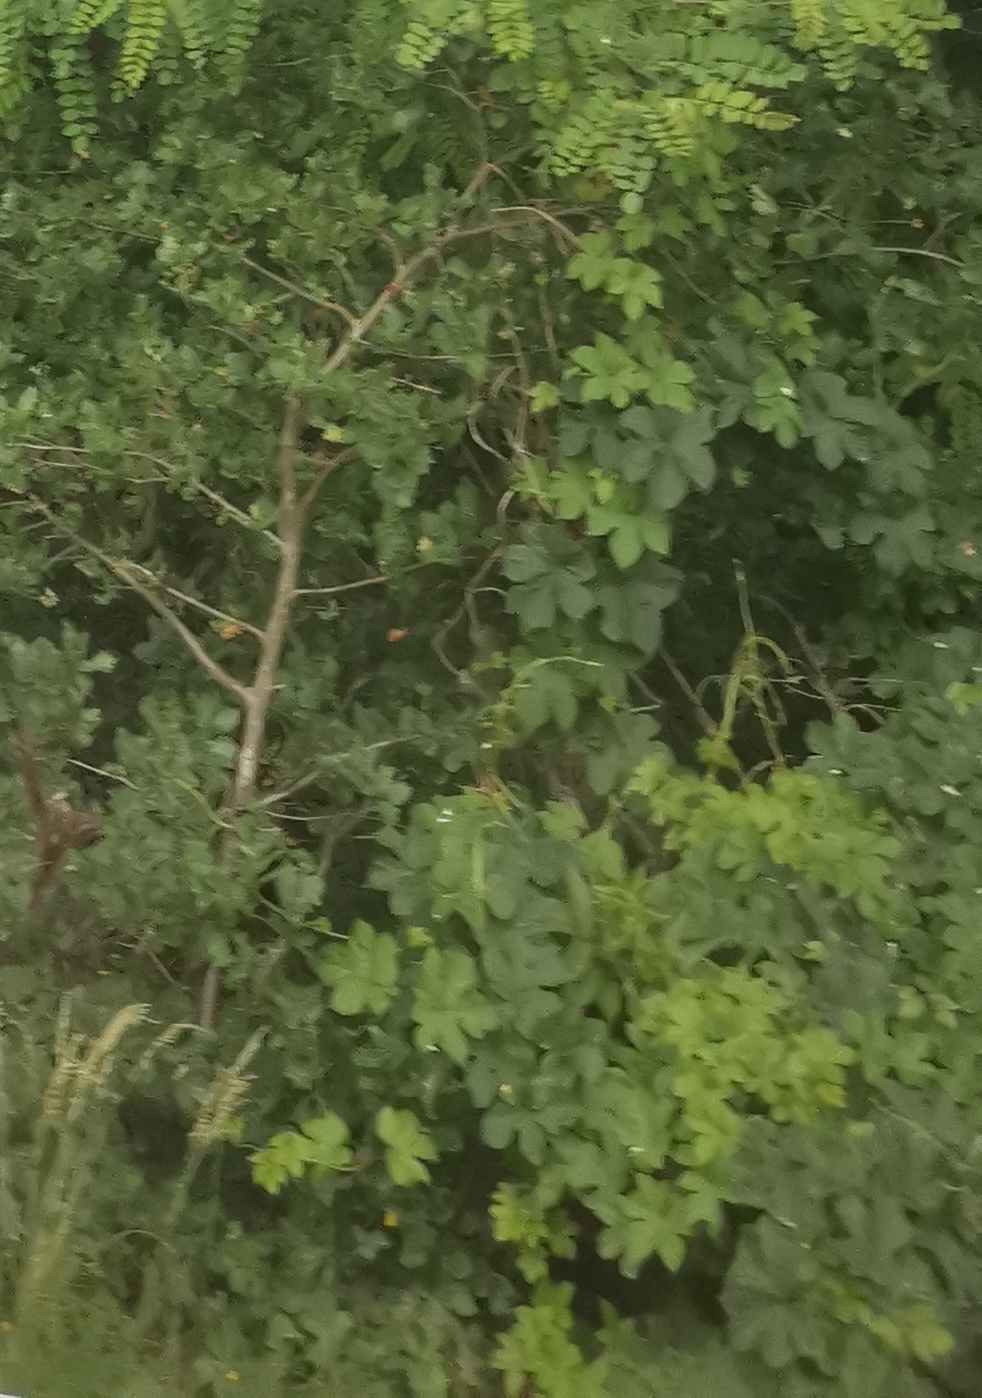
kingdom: Plantae
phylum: Tracheophyta
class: Magnoliopsida
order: Rosales
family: Cannabaceae
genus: Humulus
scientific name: Humulus lupulus
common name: Hop
